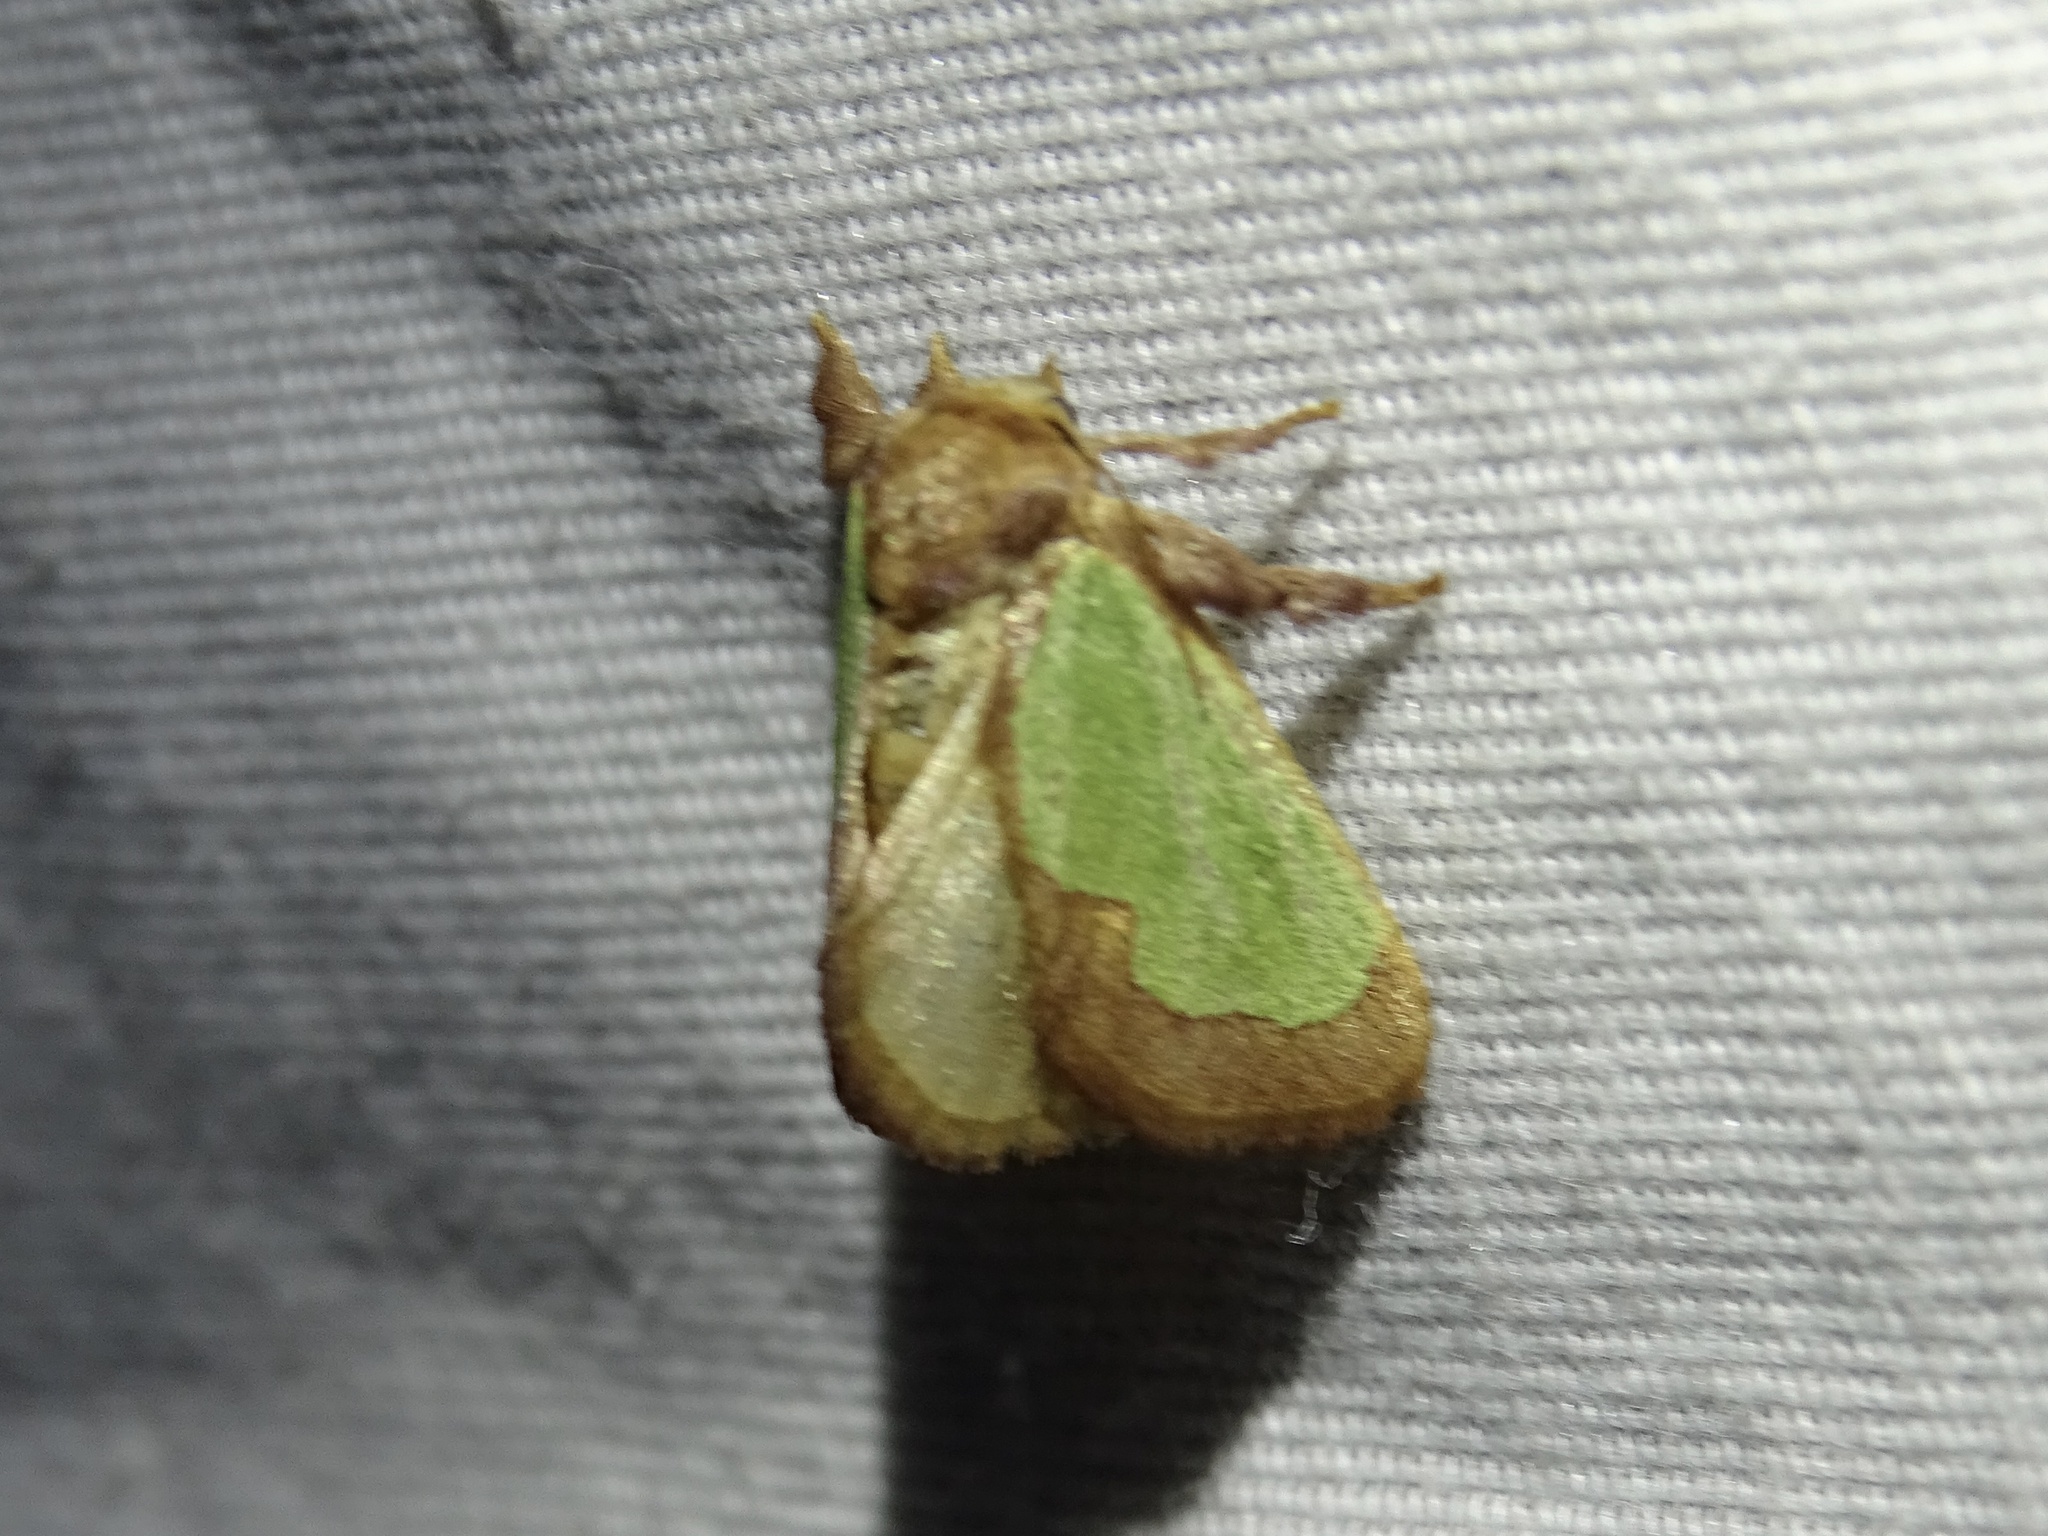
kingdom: Animalia
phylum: Arthropoda
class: Insecta
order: Lepidoptera
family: Limacodidae
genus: Euclea
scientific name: Euclea incisa
